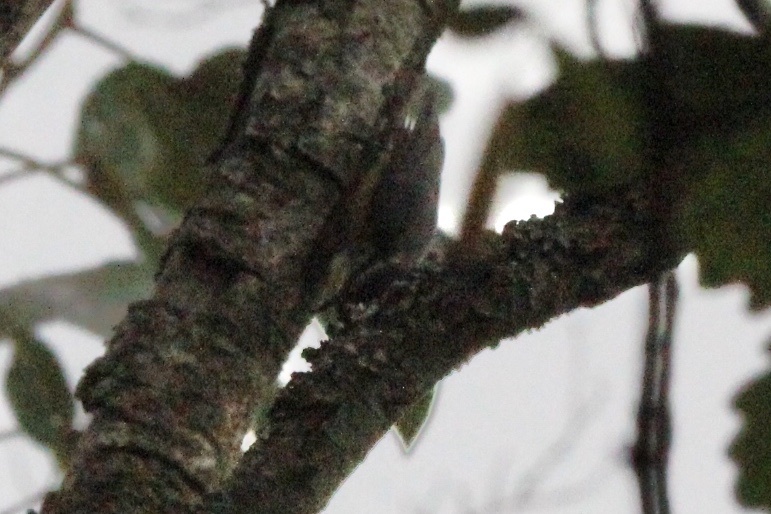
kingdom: Animalia
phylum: Chordata
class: Aves
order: Passeriformes
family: Sittidae
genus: Sitta
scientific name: Sitta canadensis
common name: Red-breasted nuthatch
